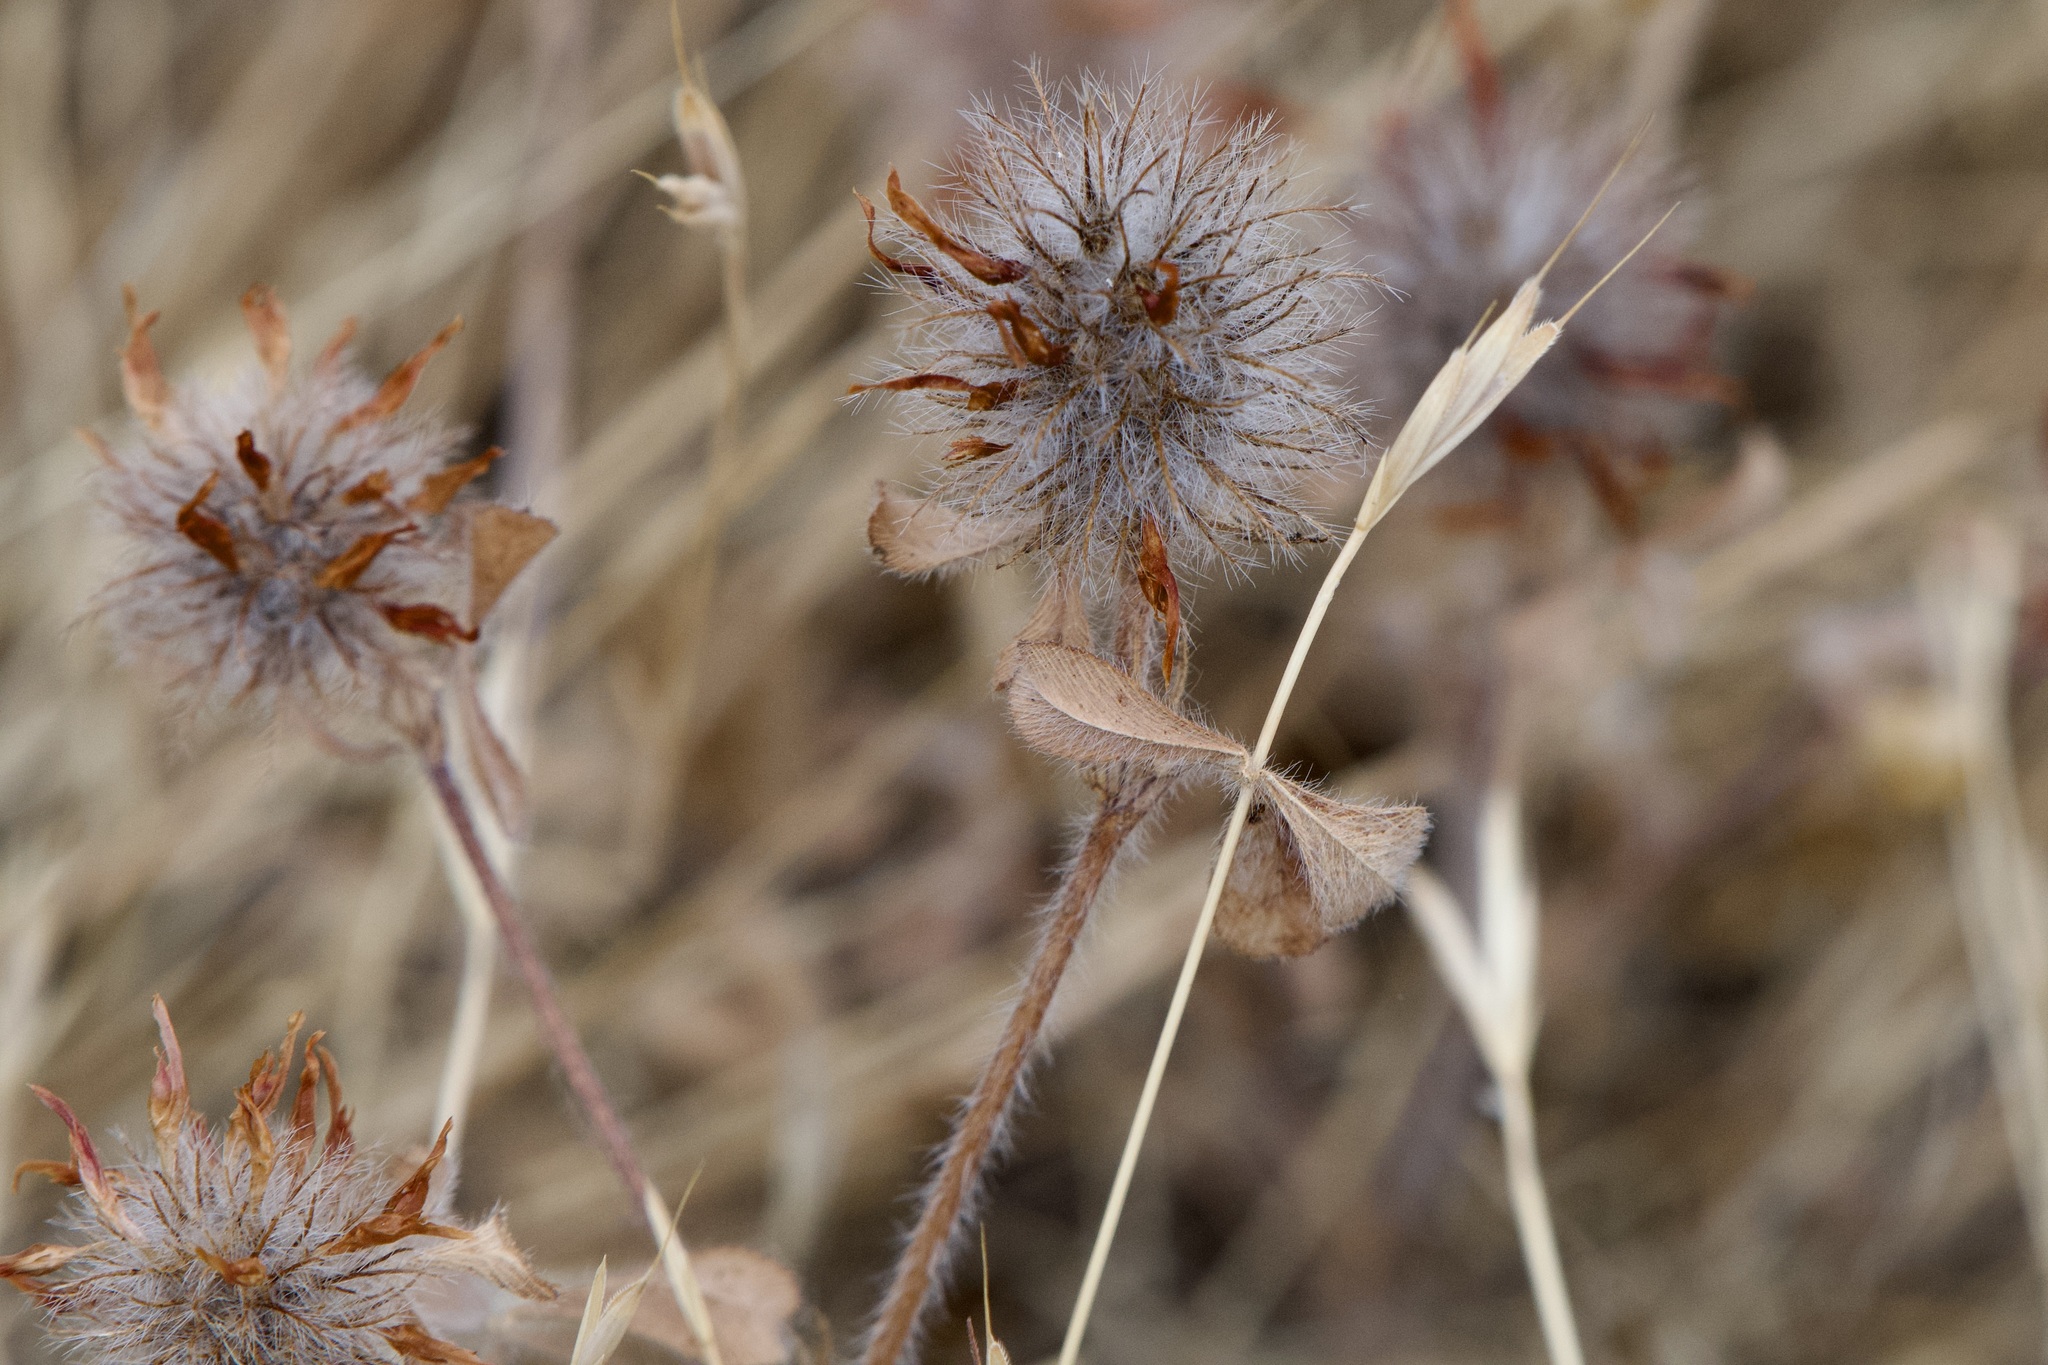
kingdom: Plantae
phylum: Tracheophyta
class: Magnoliopsida
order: Fabales
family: Fabaceae
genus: Trifolium
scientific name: Trifolium hirtum
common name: Rose clover
